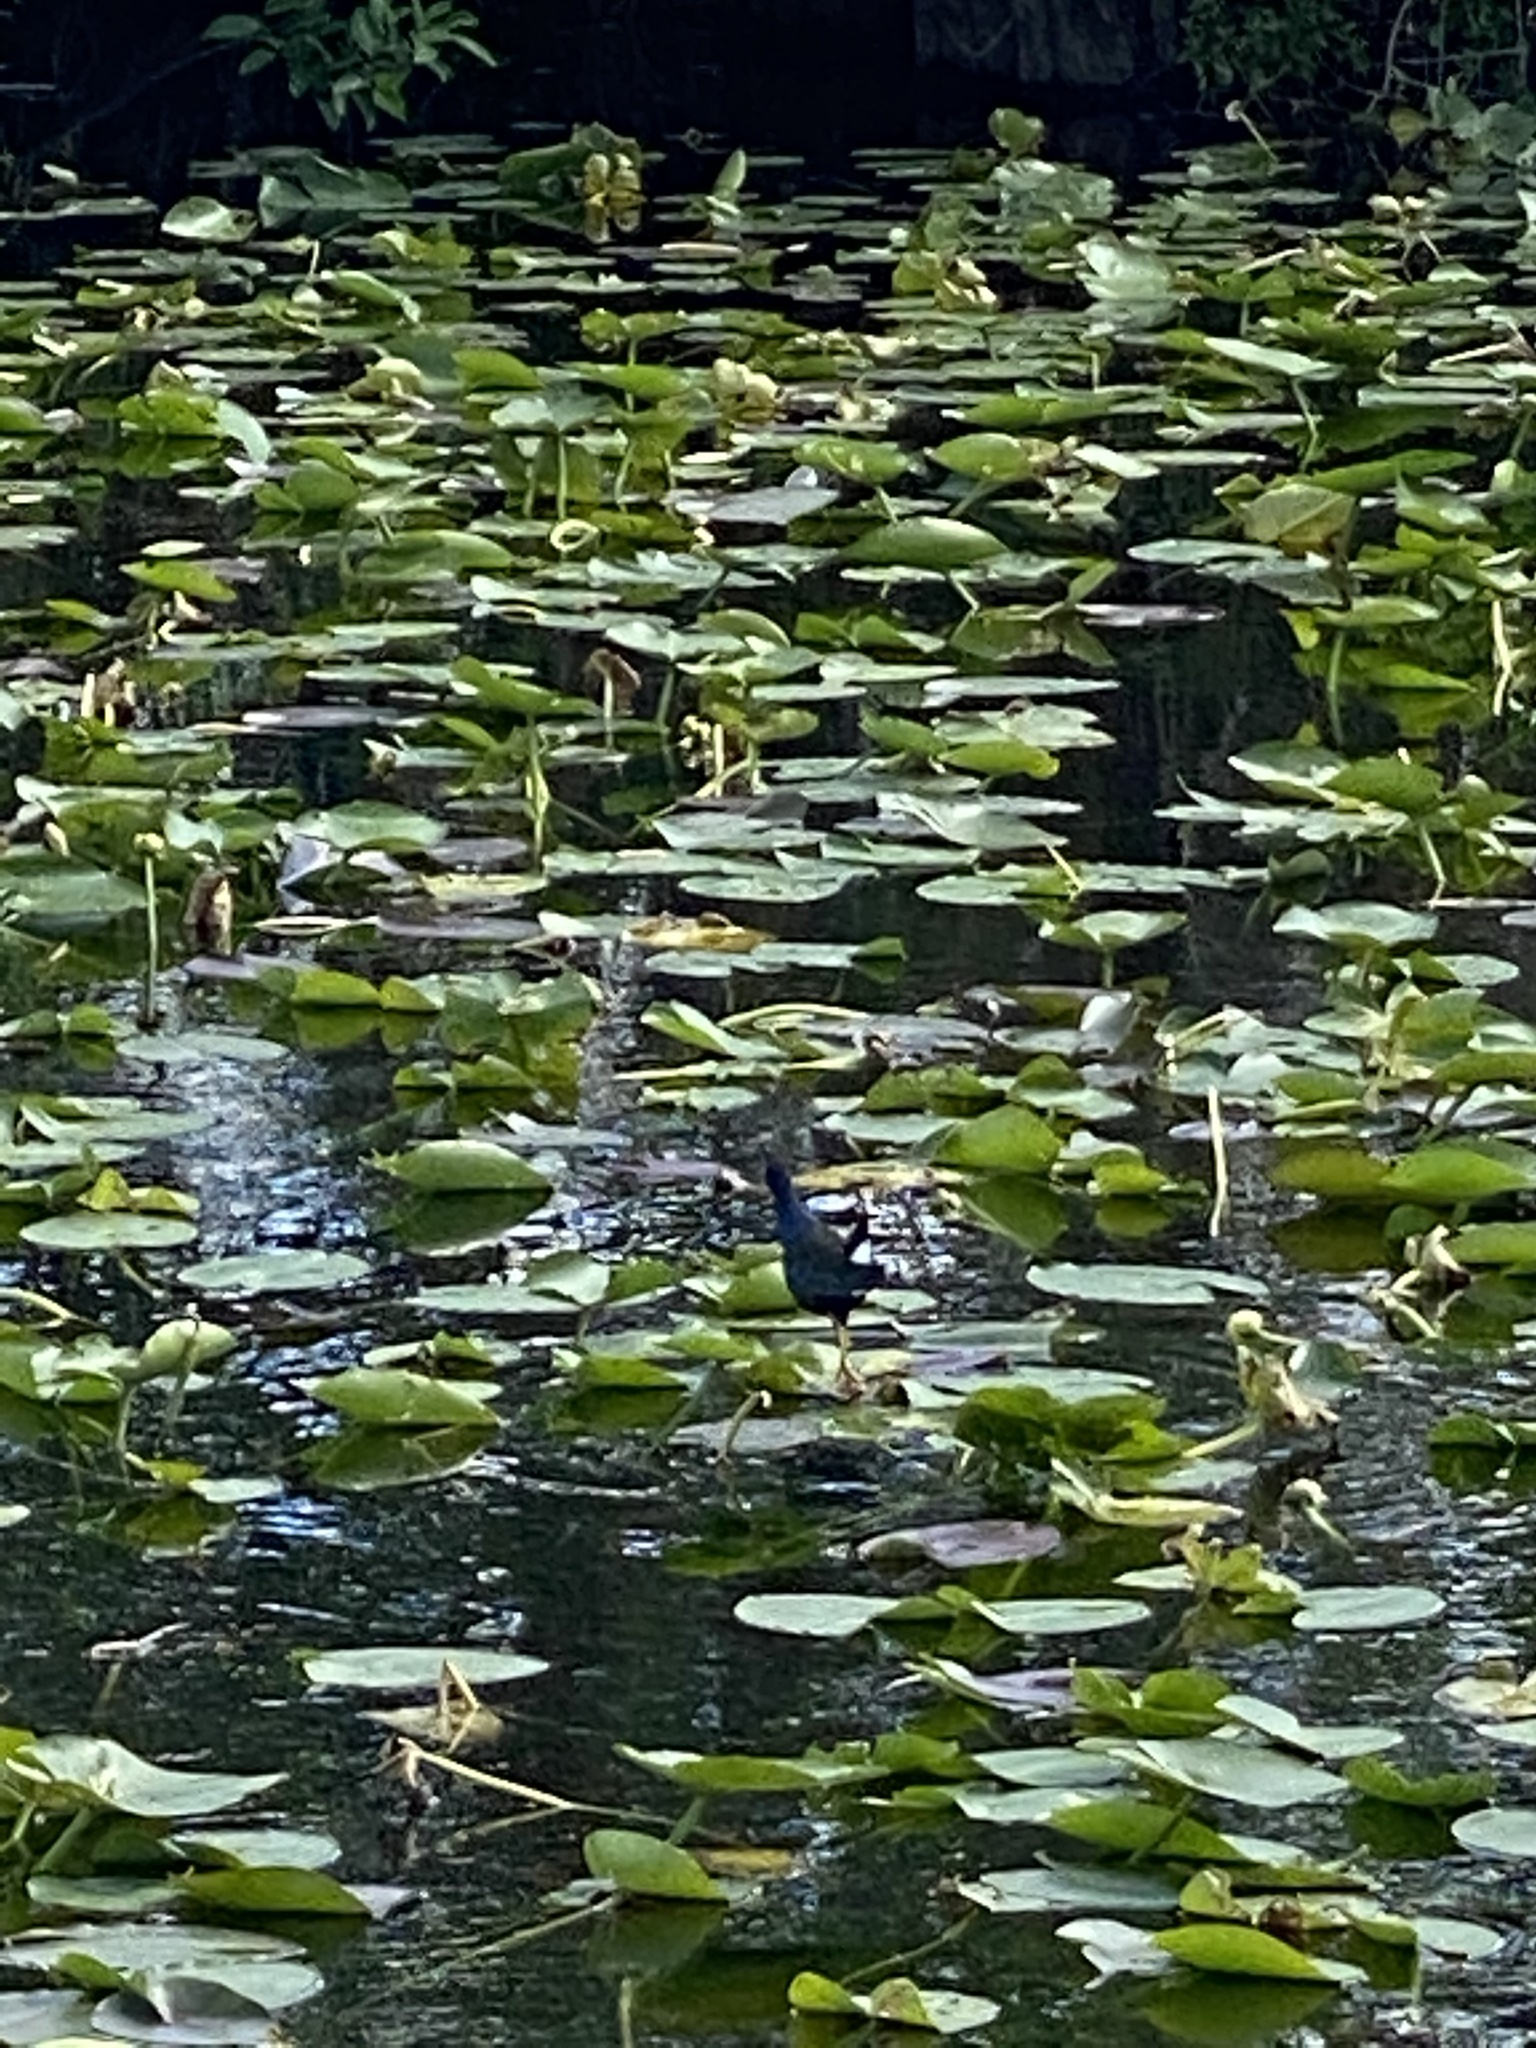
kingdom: Animalia
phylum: Chordata
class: Aves
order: Gruiformes
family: Rallidae
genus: Porphyrio
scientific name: Porphyrio martinica
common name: Purple gallinule
